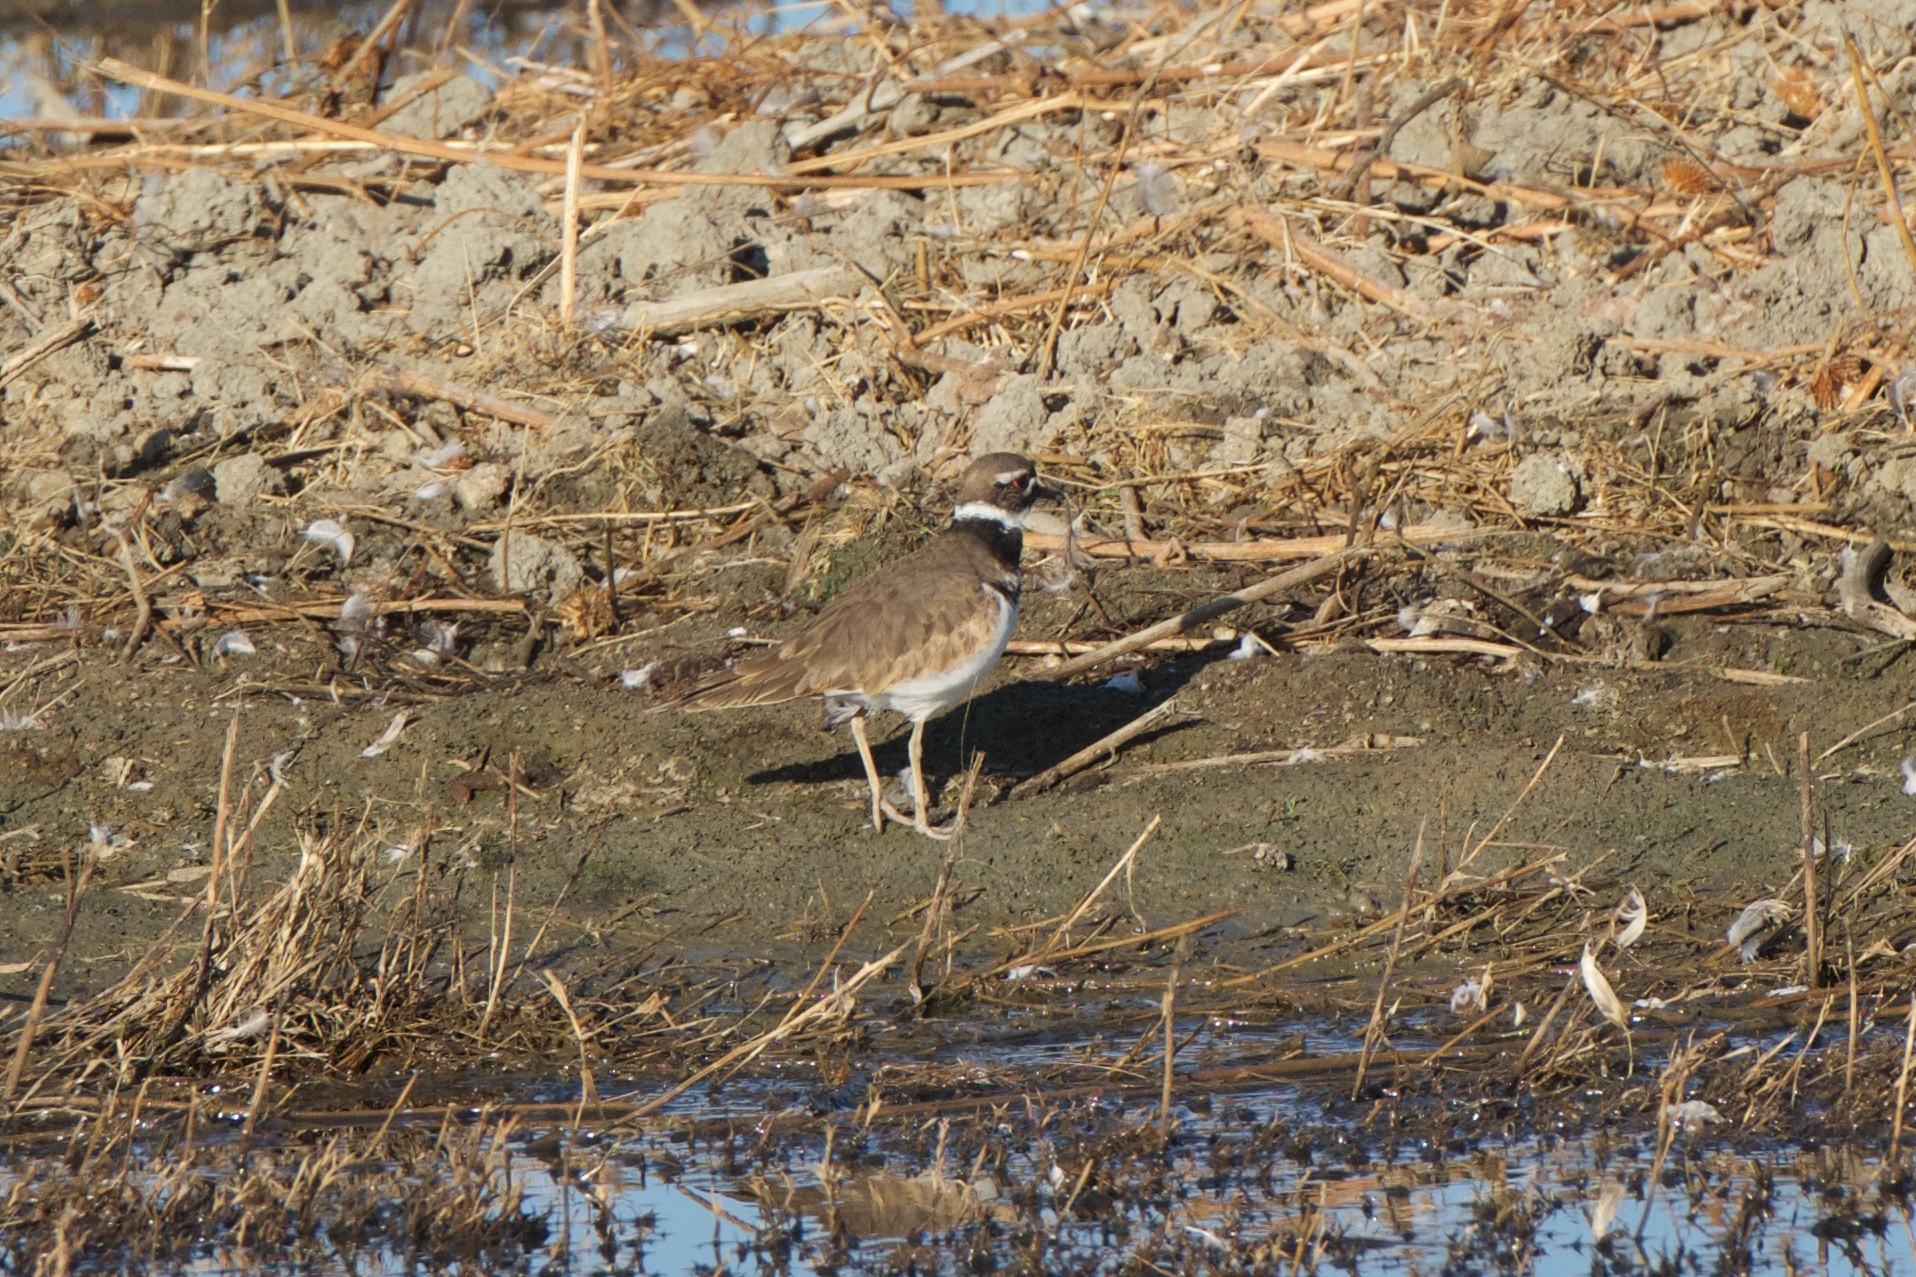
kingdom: Animalia
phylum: Chordata
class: Aves
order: Charadriiformes
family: Charadriidae
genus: Charadrius
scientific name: Charadrius vociferus
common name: Killdeer
